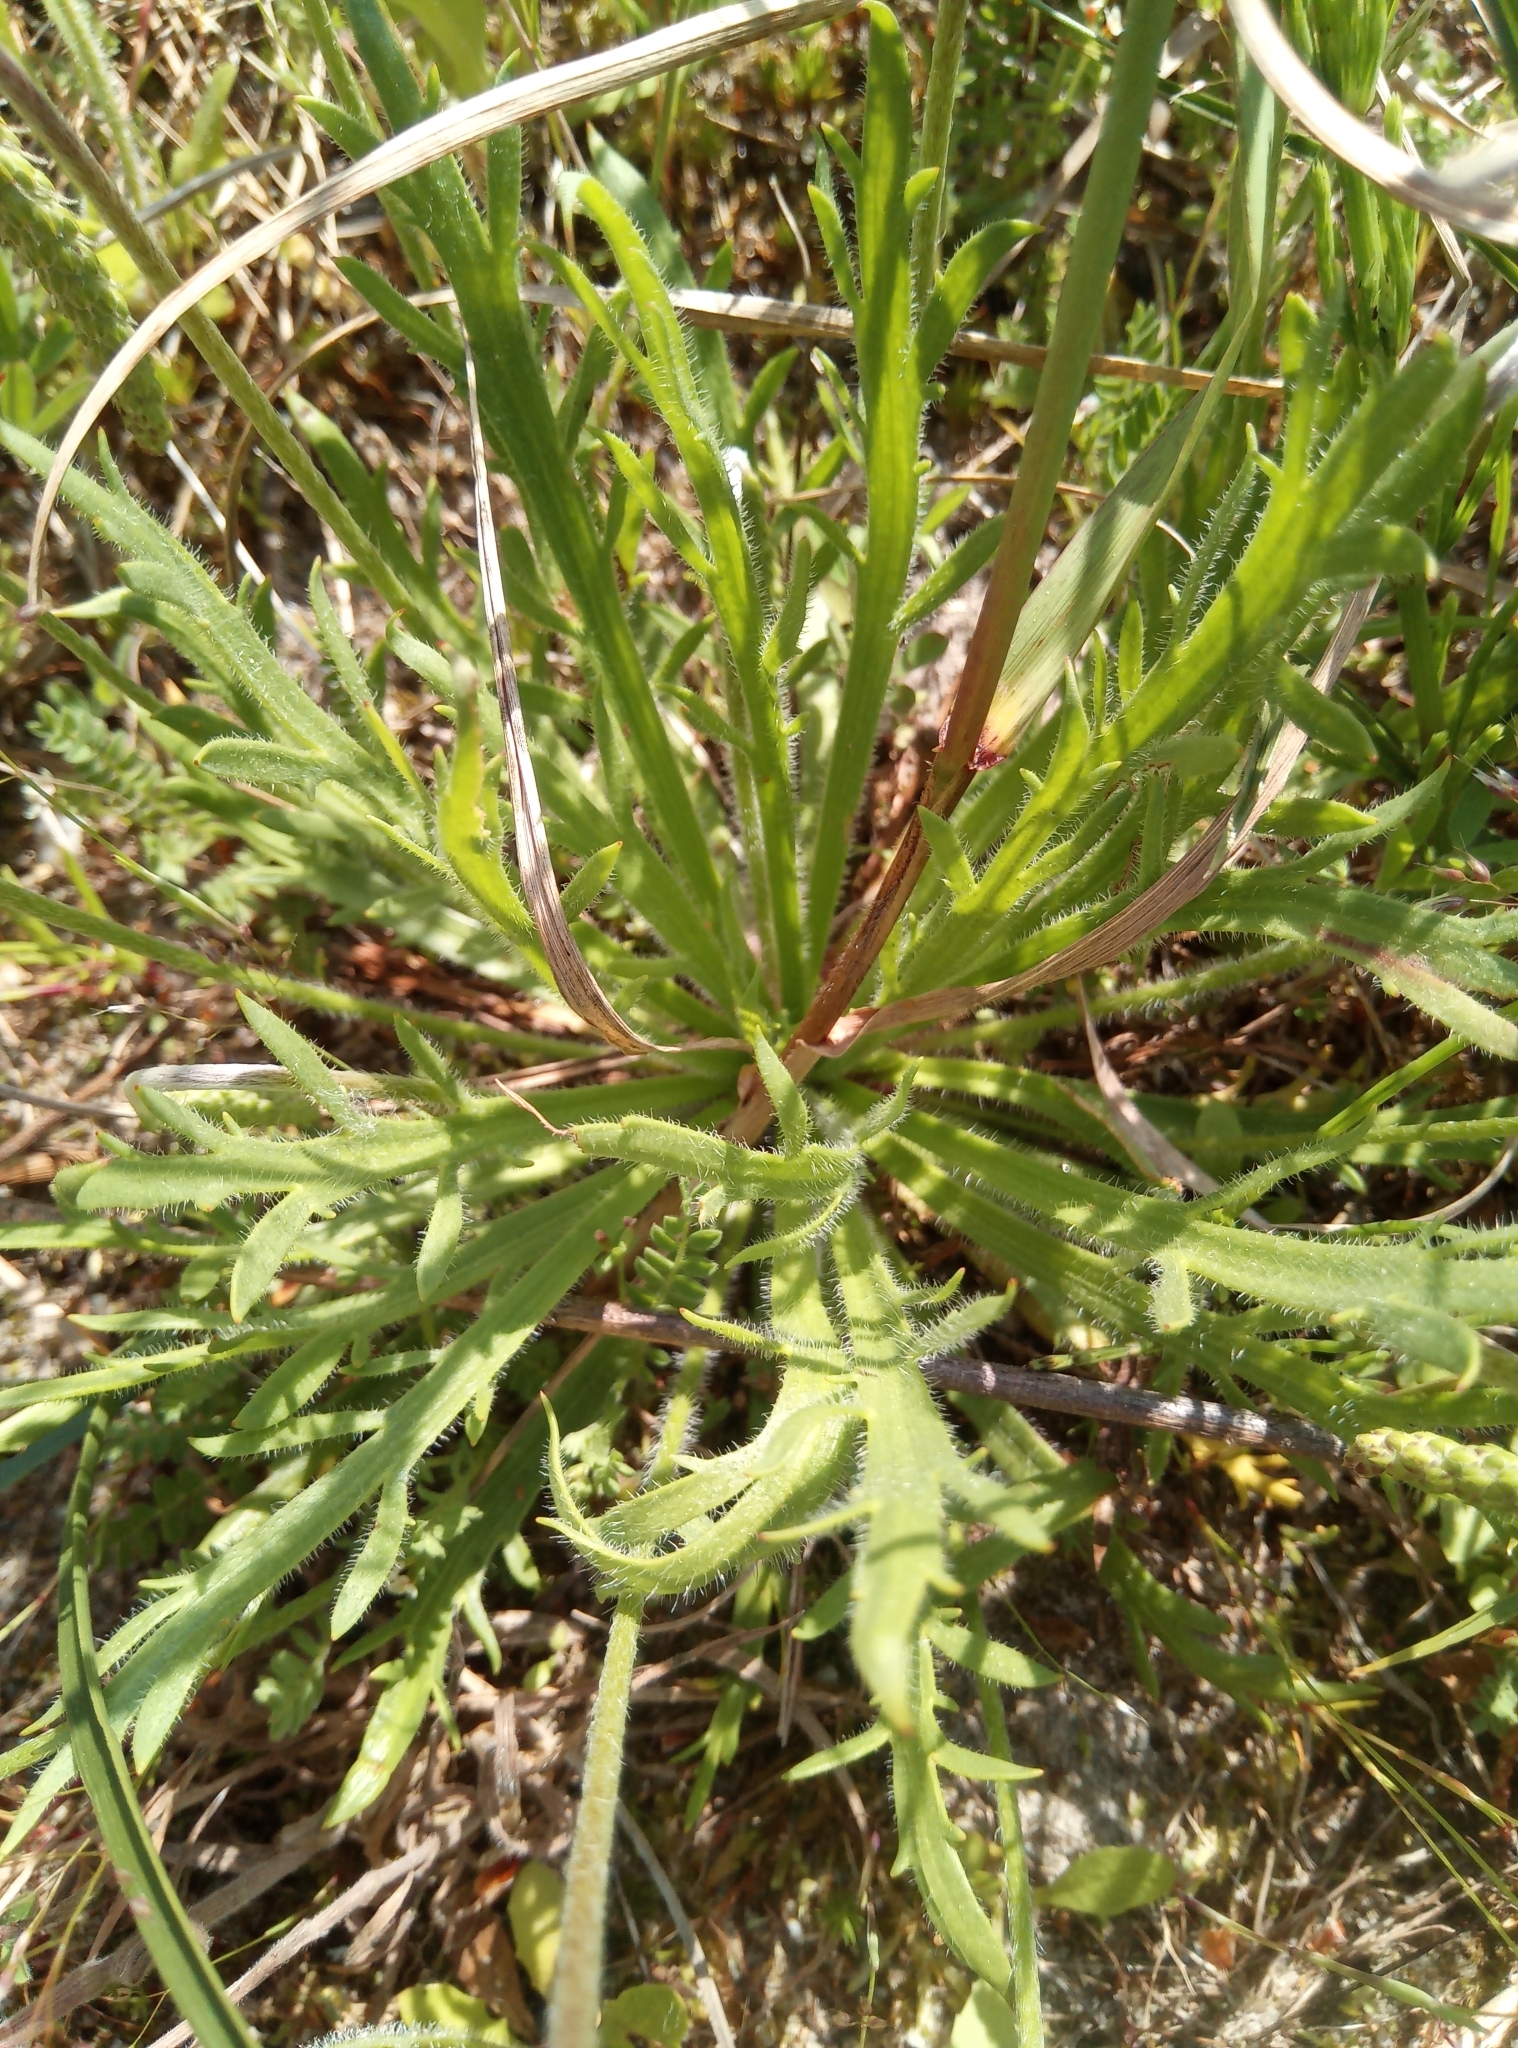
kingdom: Plantae
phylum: Tracheophyta
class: Magnoliopsida
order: Lamiales
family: Plantaginaceae
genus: Plantago
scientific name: Plantago coronopus
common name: Buck's-horn plantain
